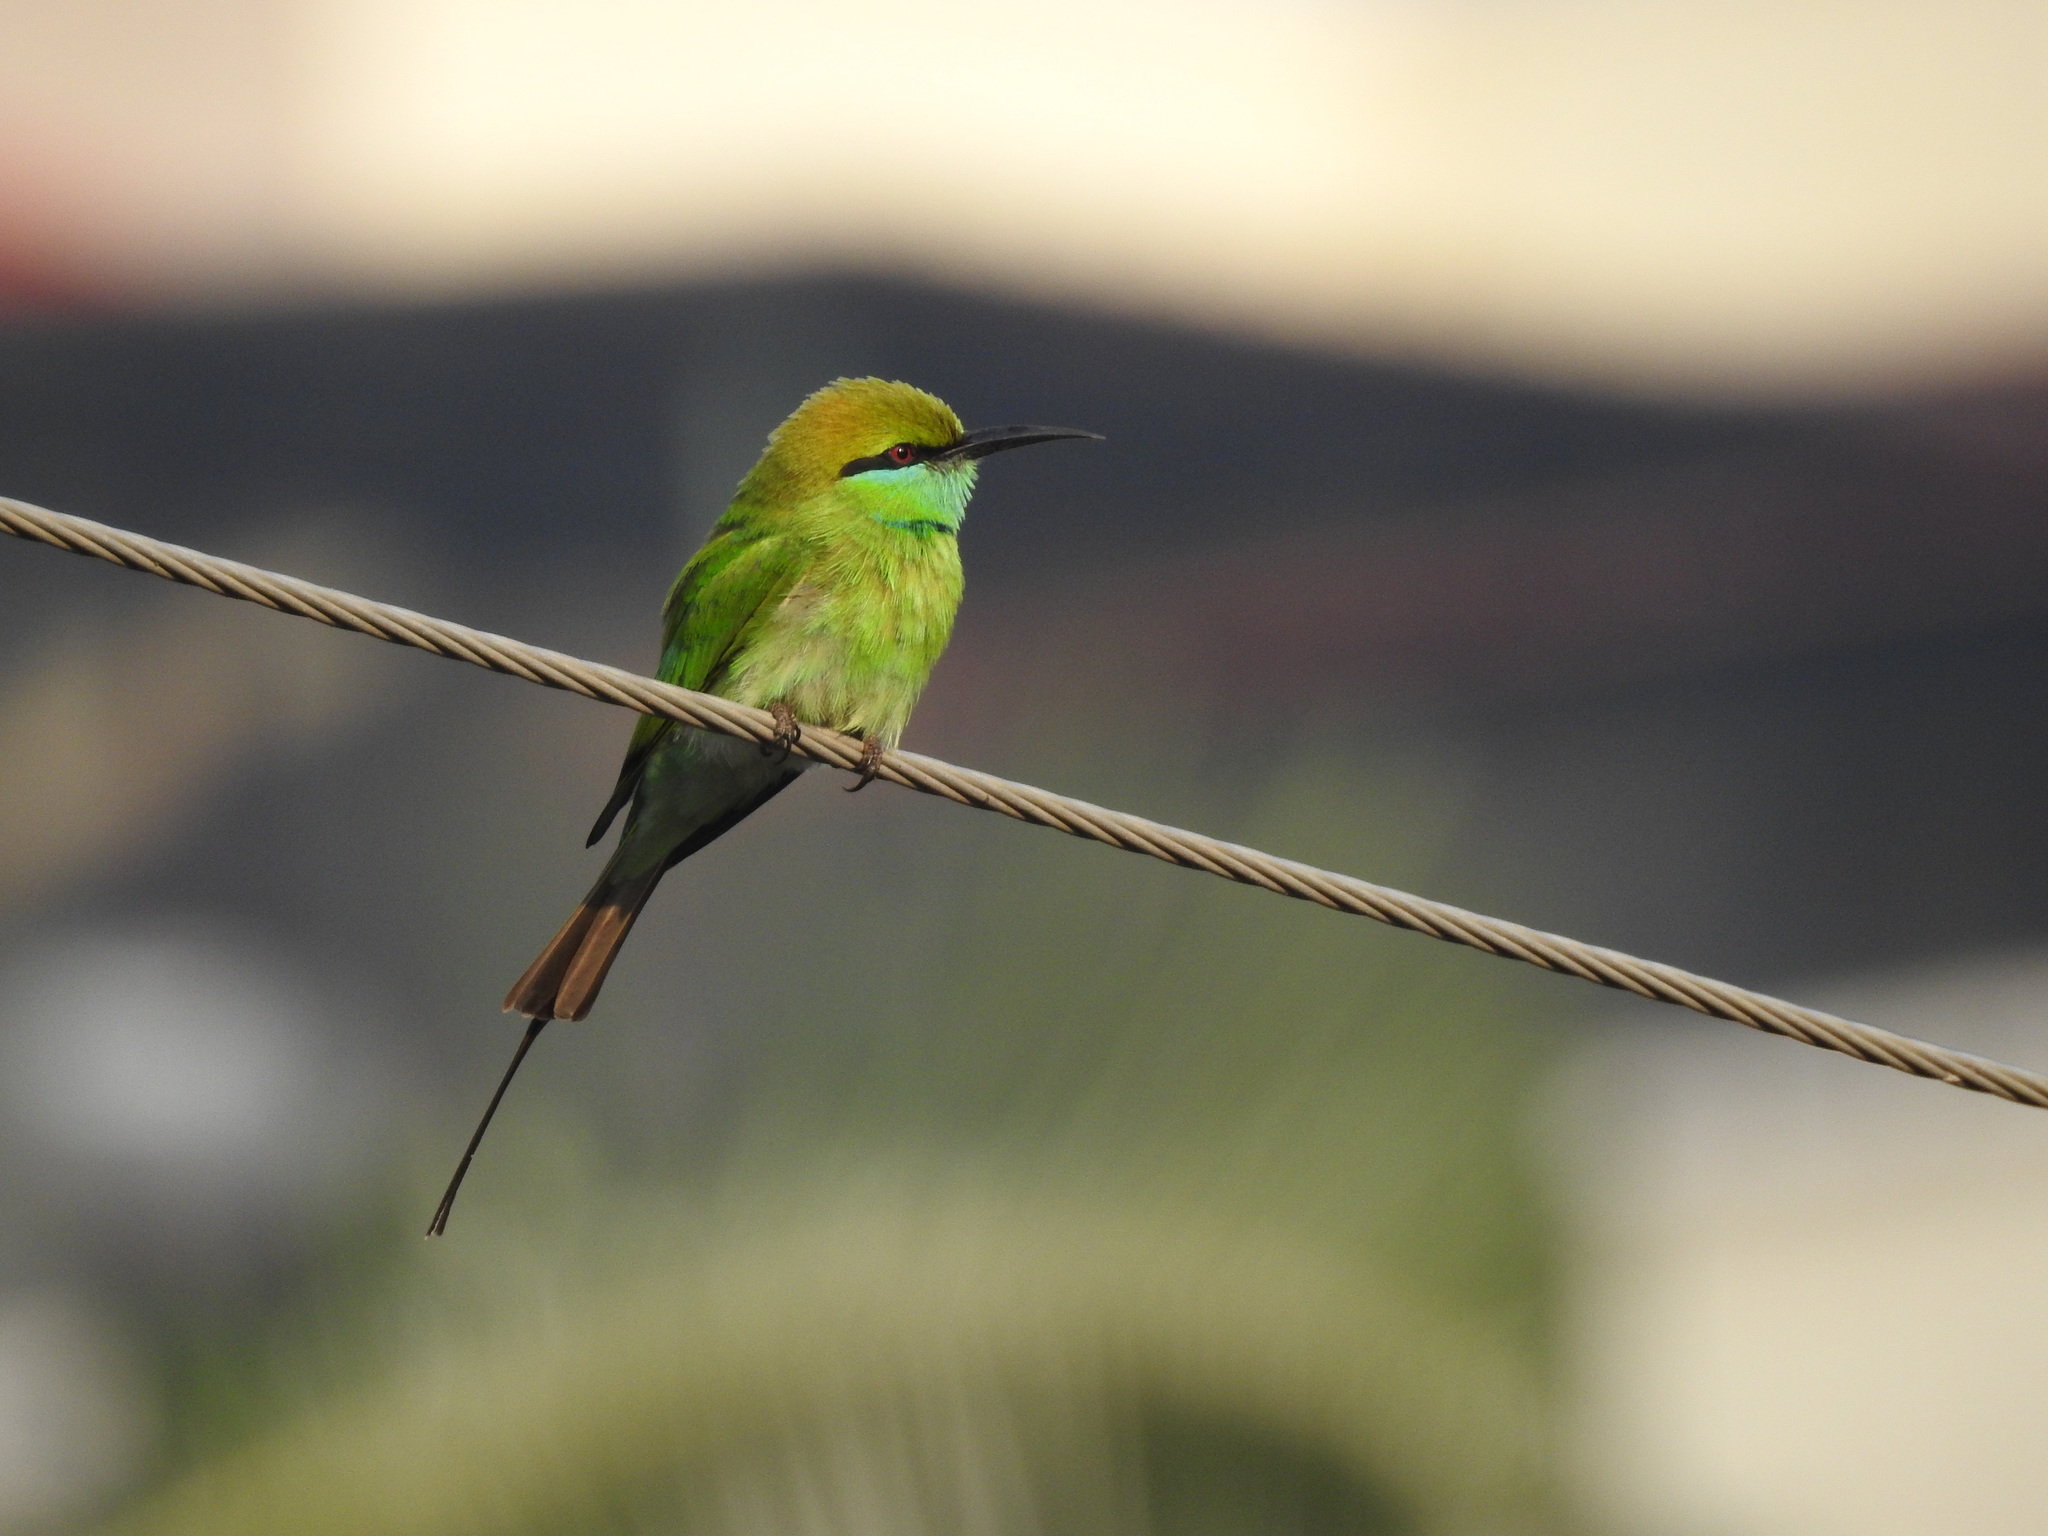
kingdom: Animalia
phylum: Chordata
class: Aves
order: Coraciiformes
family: Meropidae
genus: Merops
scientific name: Merops orientalis
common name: Green bee-eater
